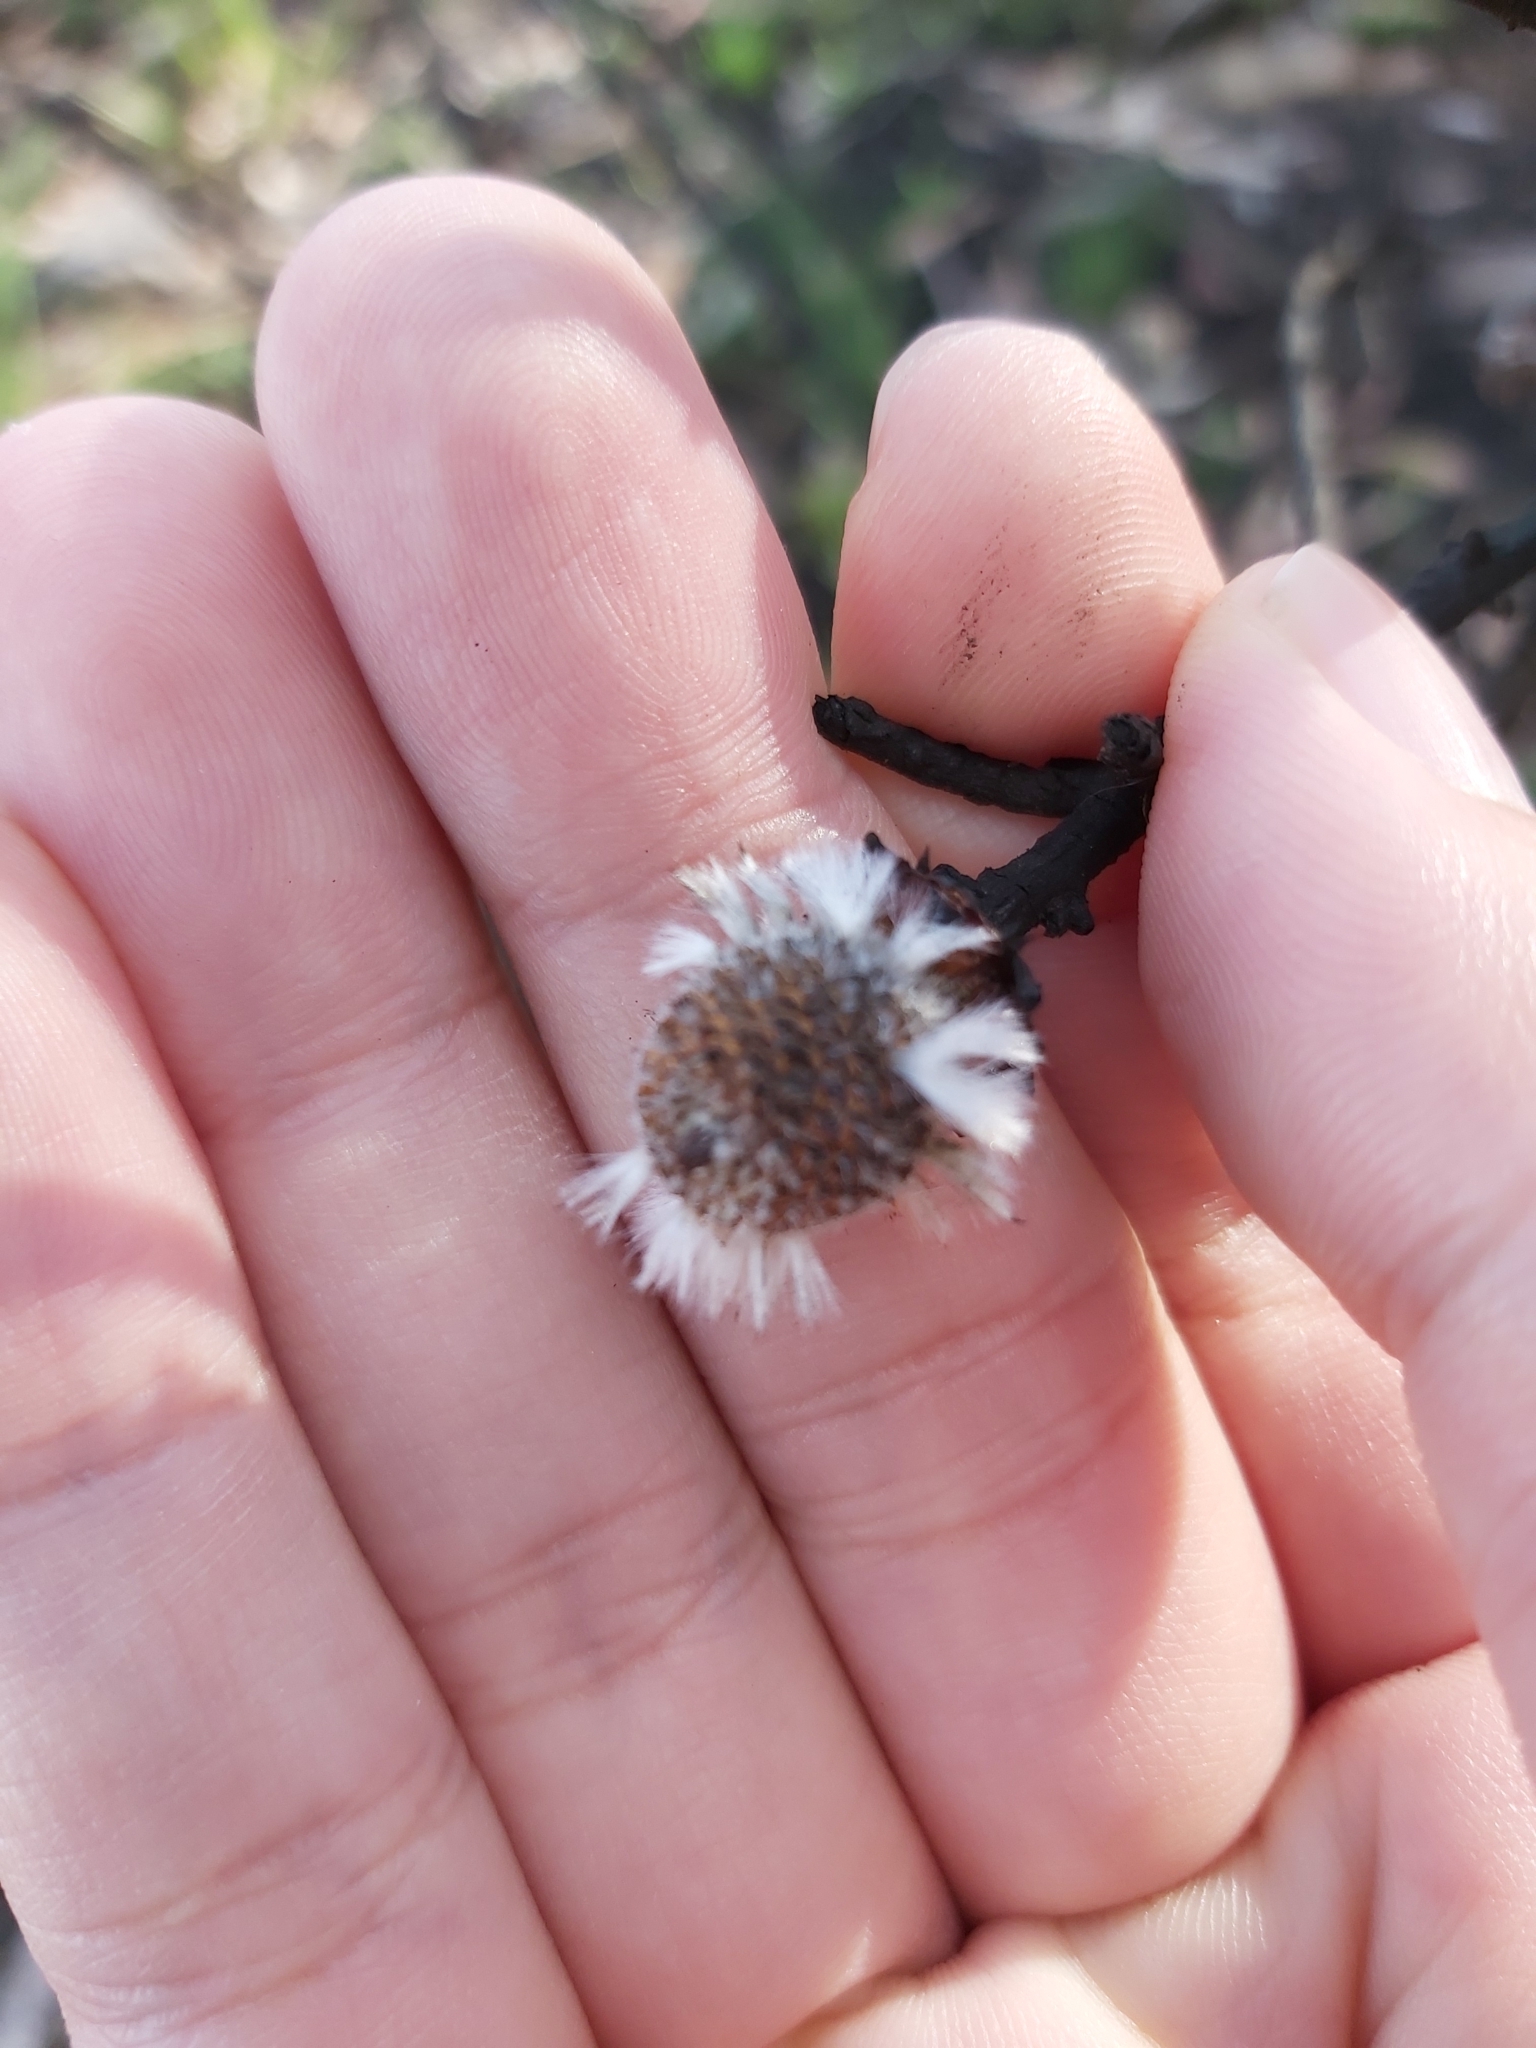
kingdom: Plantae
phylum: Tracheophyta
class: Magnoliopsida
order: Proteales
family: Proteaceae
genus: Isopogon
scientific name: Isopogon anemonifolius
